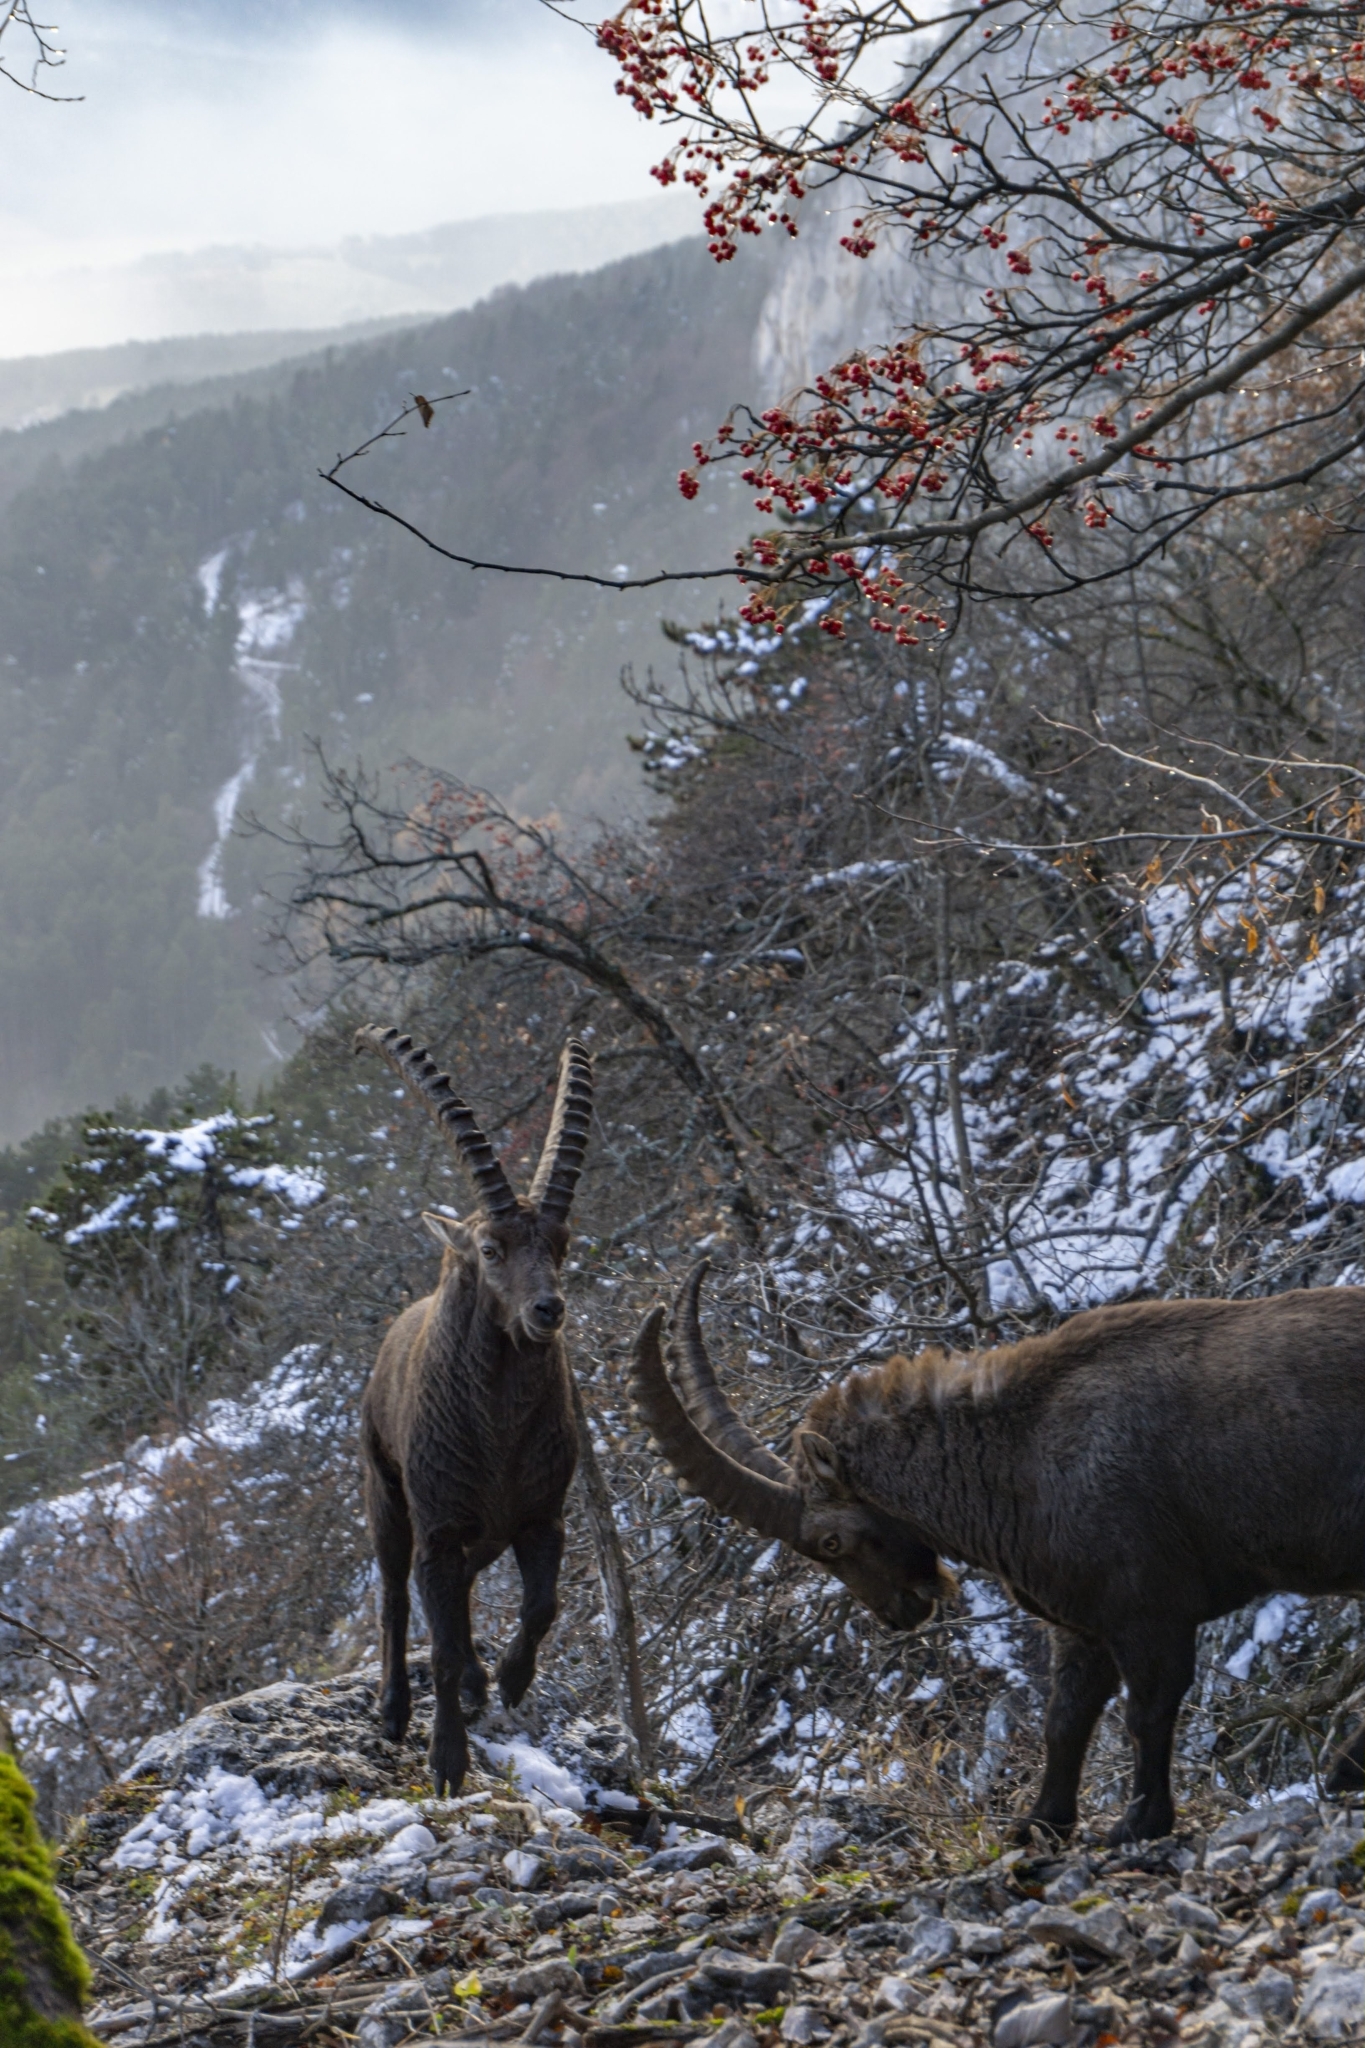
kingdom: Animalia
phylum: Chordata
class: Mammalia
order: Artiodactyla
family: Bovidae
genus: Capra
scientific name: Capra ibex
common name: Alpine ibex
